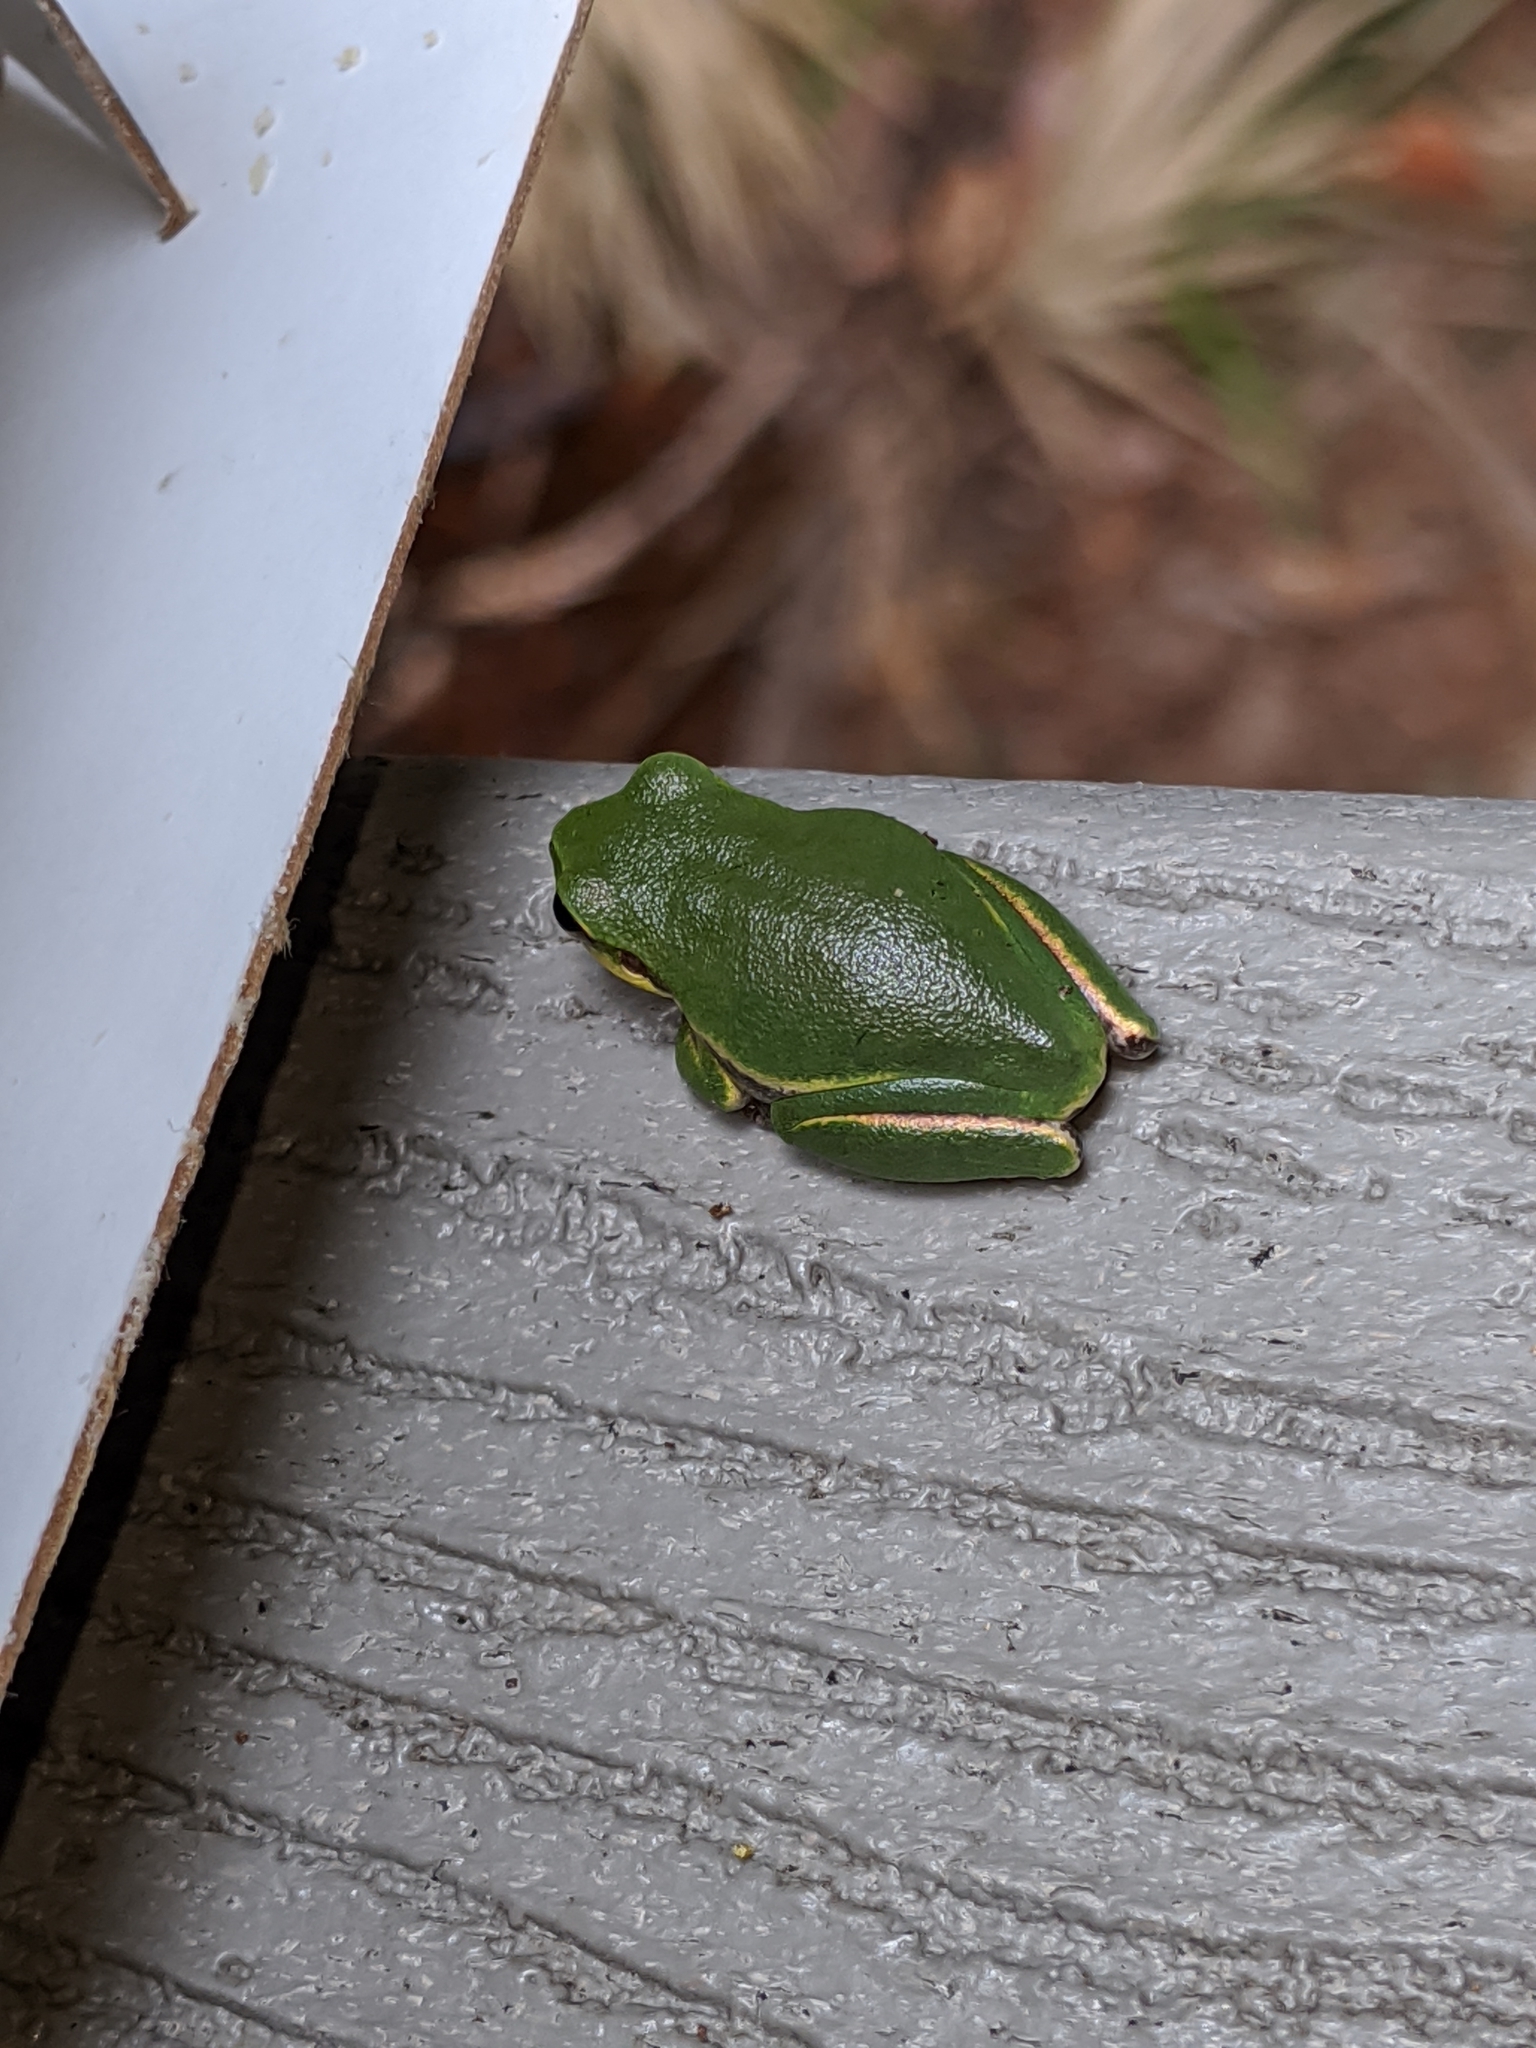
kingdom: Animalia
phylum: Chordata
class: Amphibia
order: Anura
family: Hylidae
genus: Dryophytes
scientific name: Dryophytes squirellus
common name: Squirrel treefrog
